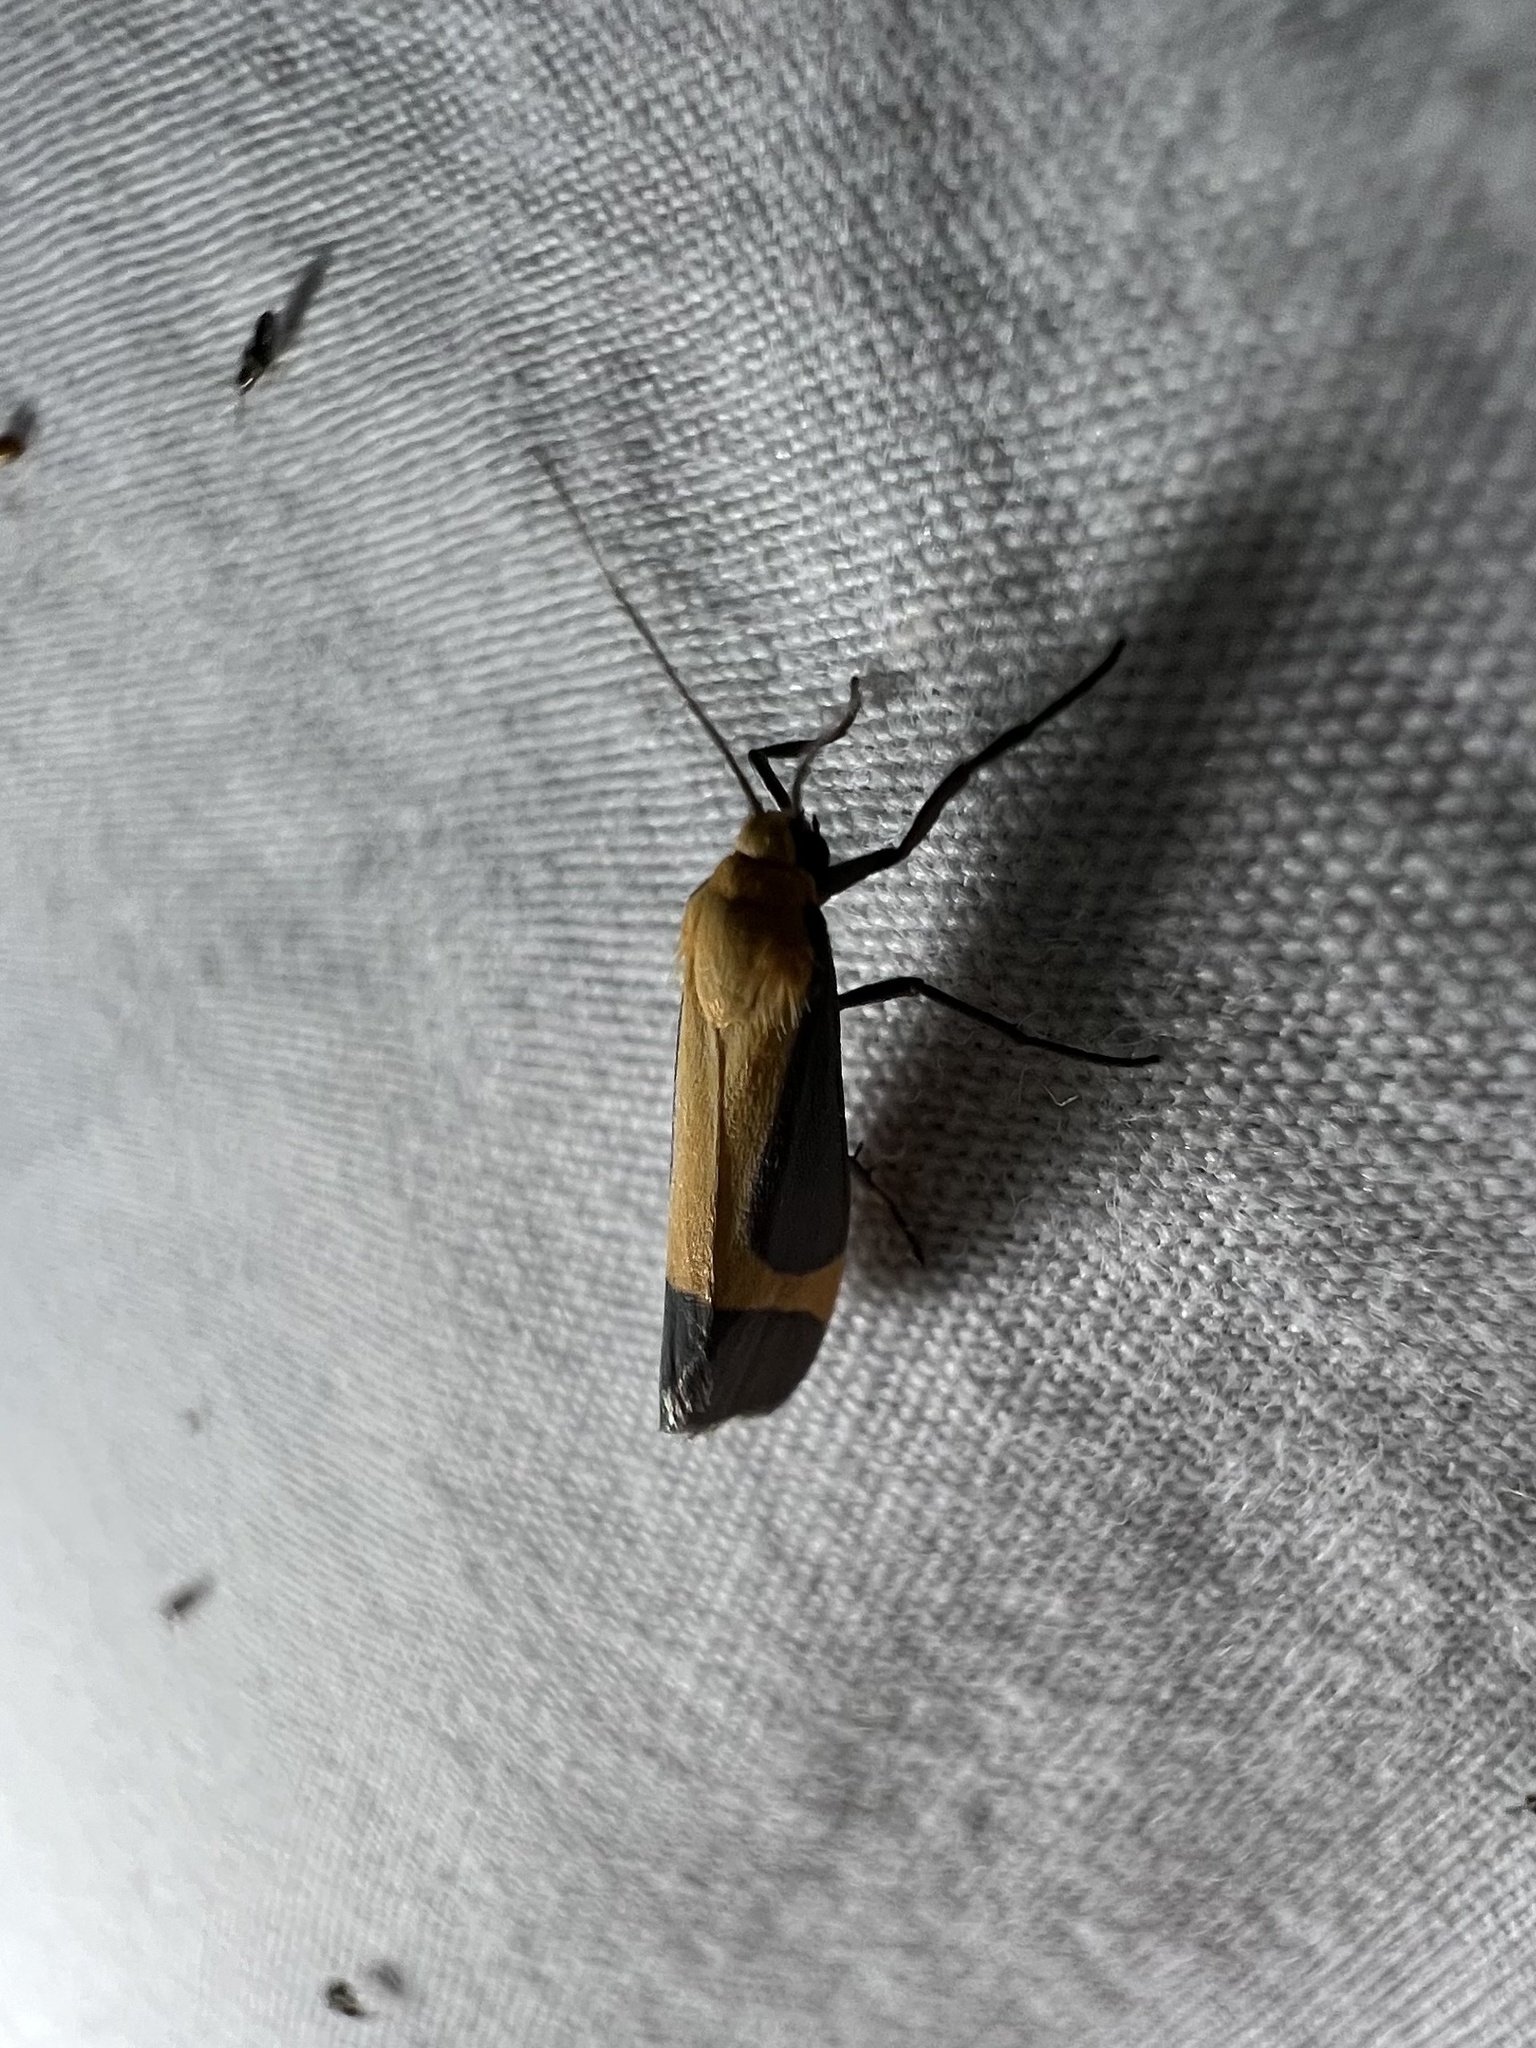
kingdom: Animalia
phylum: Arthropoda
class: Insecta
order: Lepidoptera
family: Erebidae
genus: Cisthene
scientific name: Cisthene angelus
